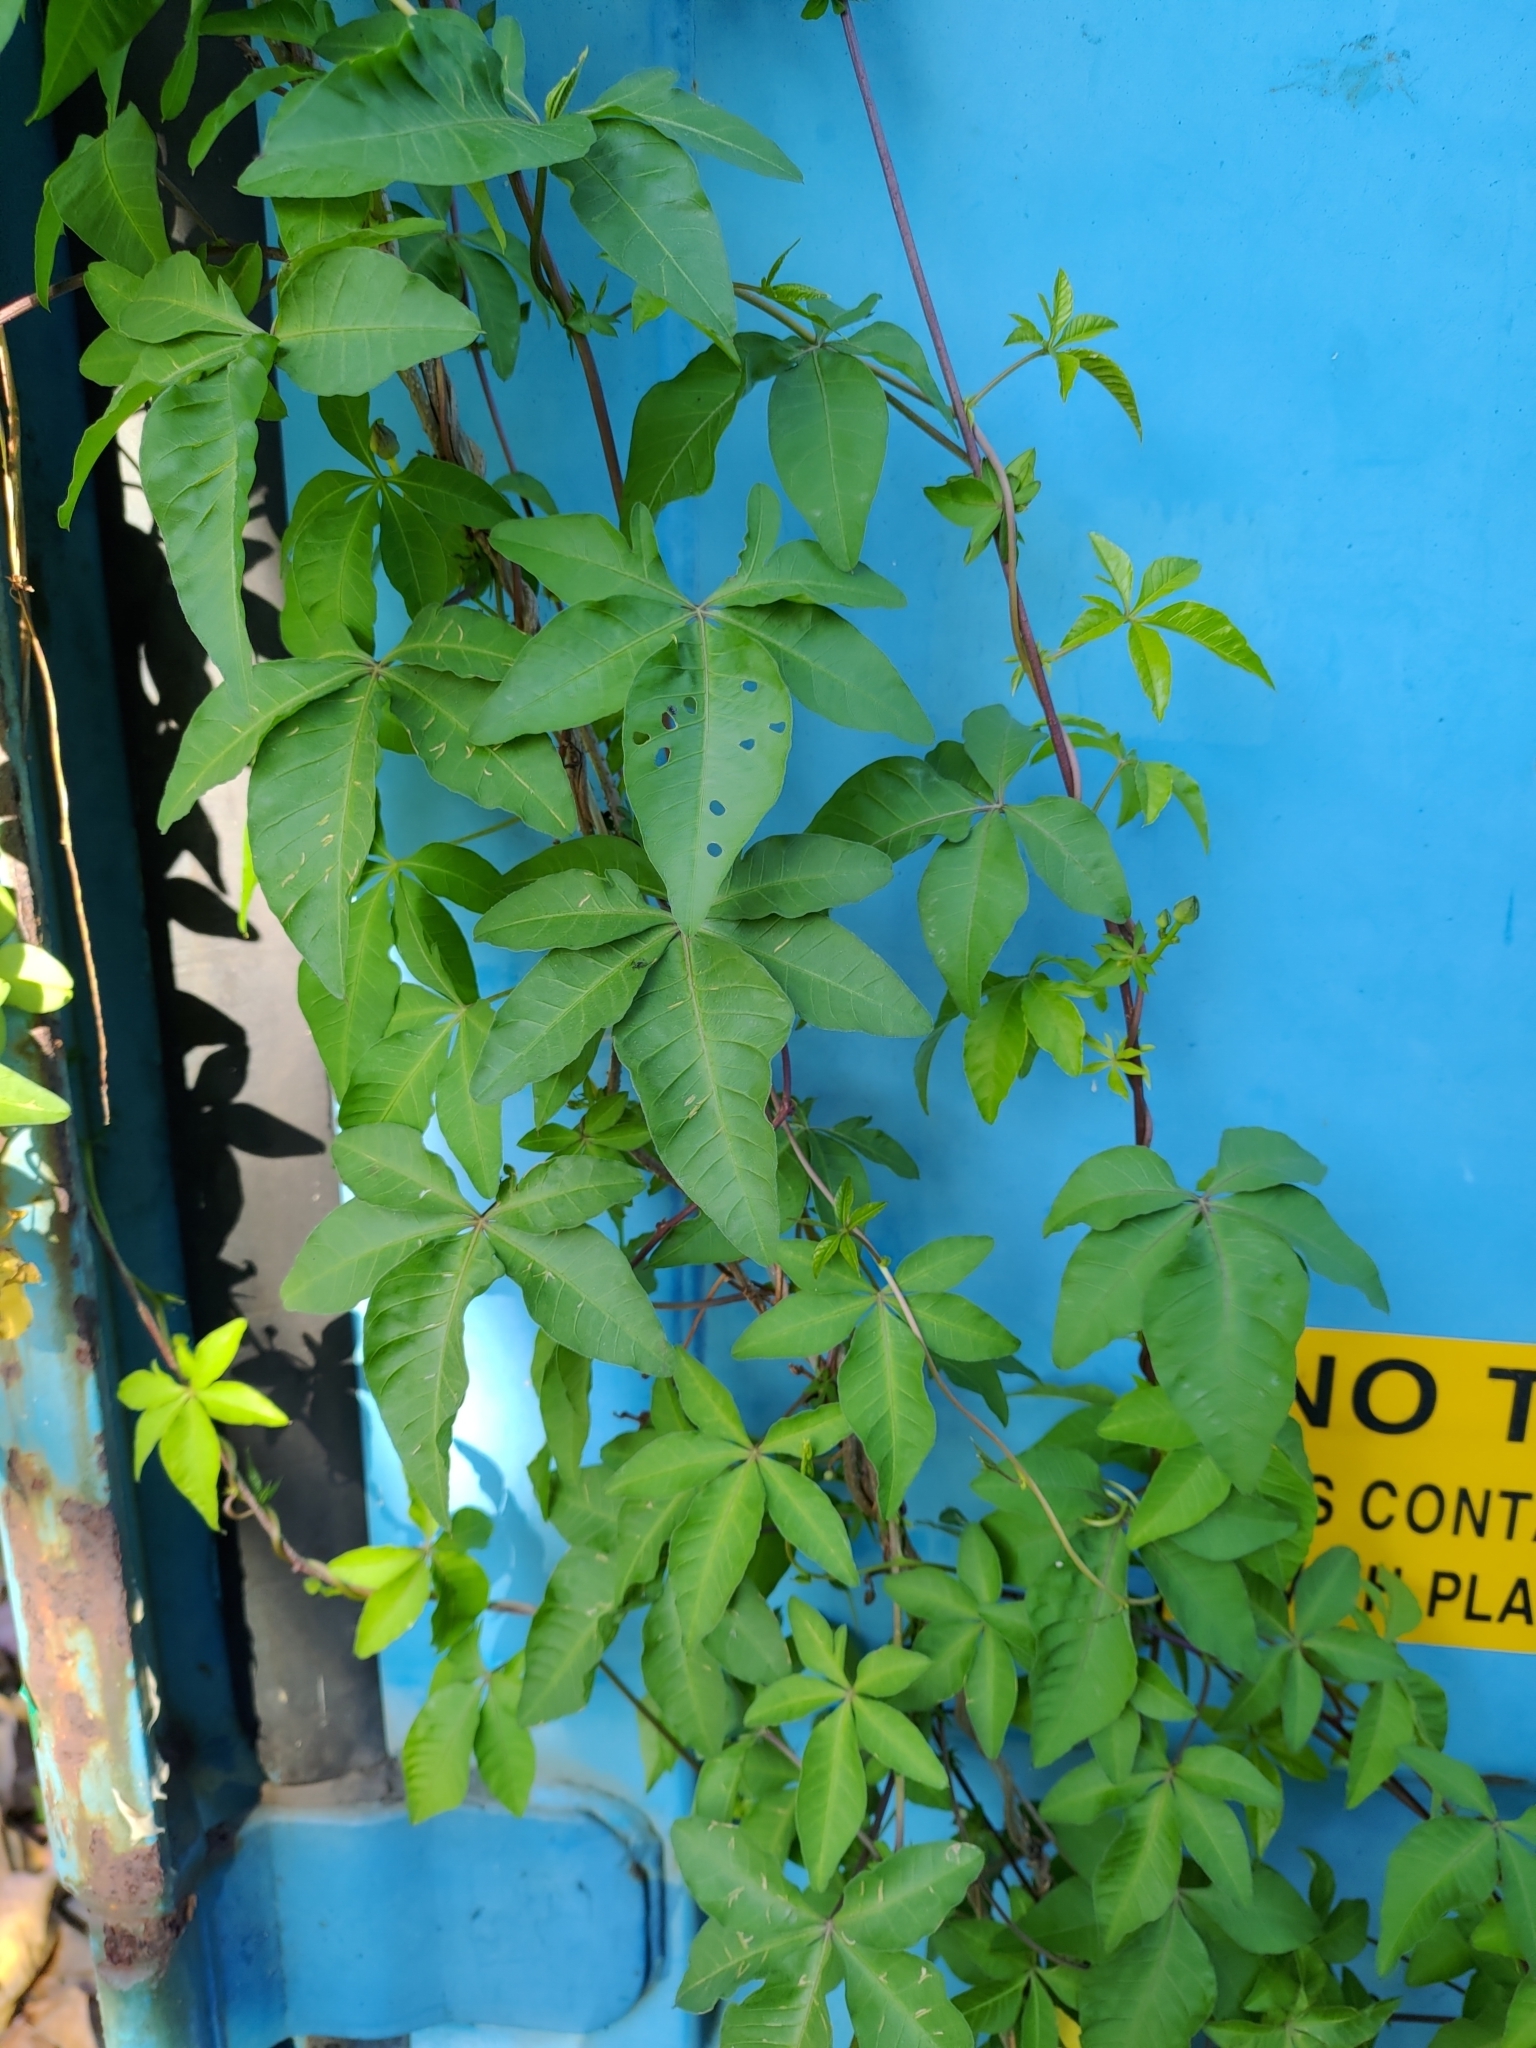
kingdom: Plantae
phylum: Tracheophyta
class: Magnoliopsida
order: Solanales
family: Convolvulaceae
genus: Ipomoea
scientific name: Ipomoea cairica
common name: Mile a minute vine
